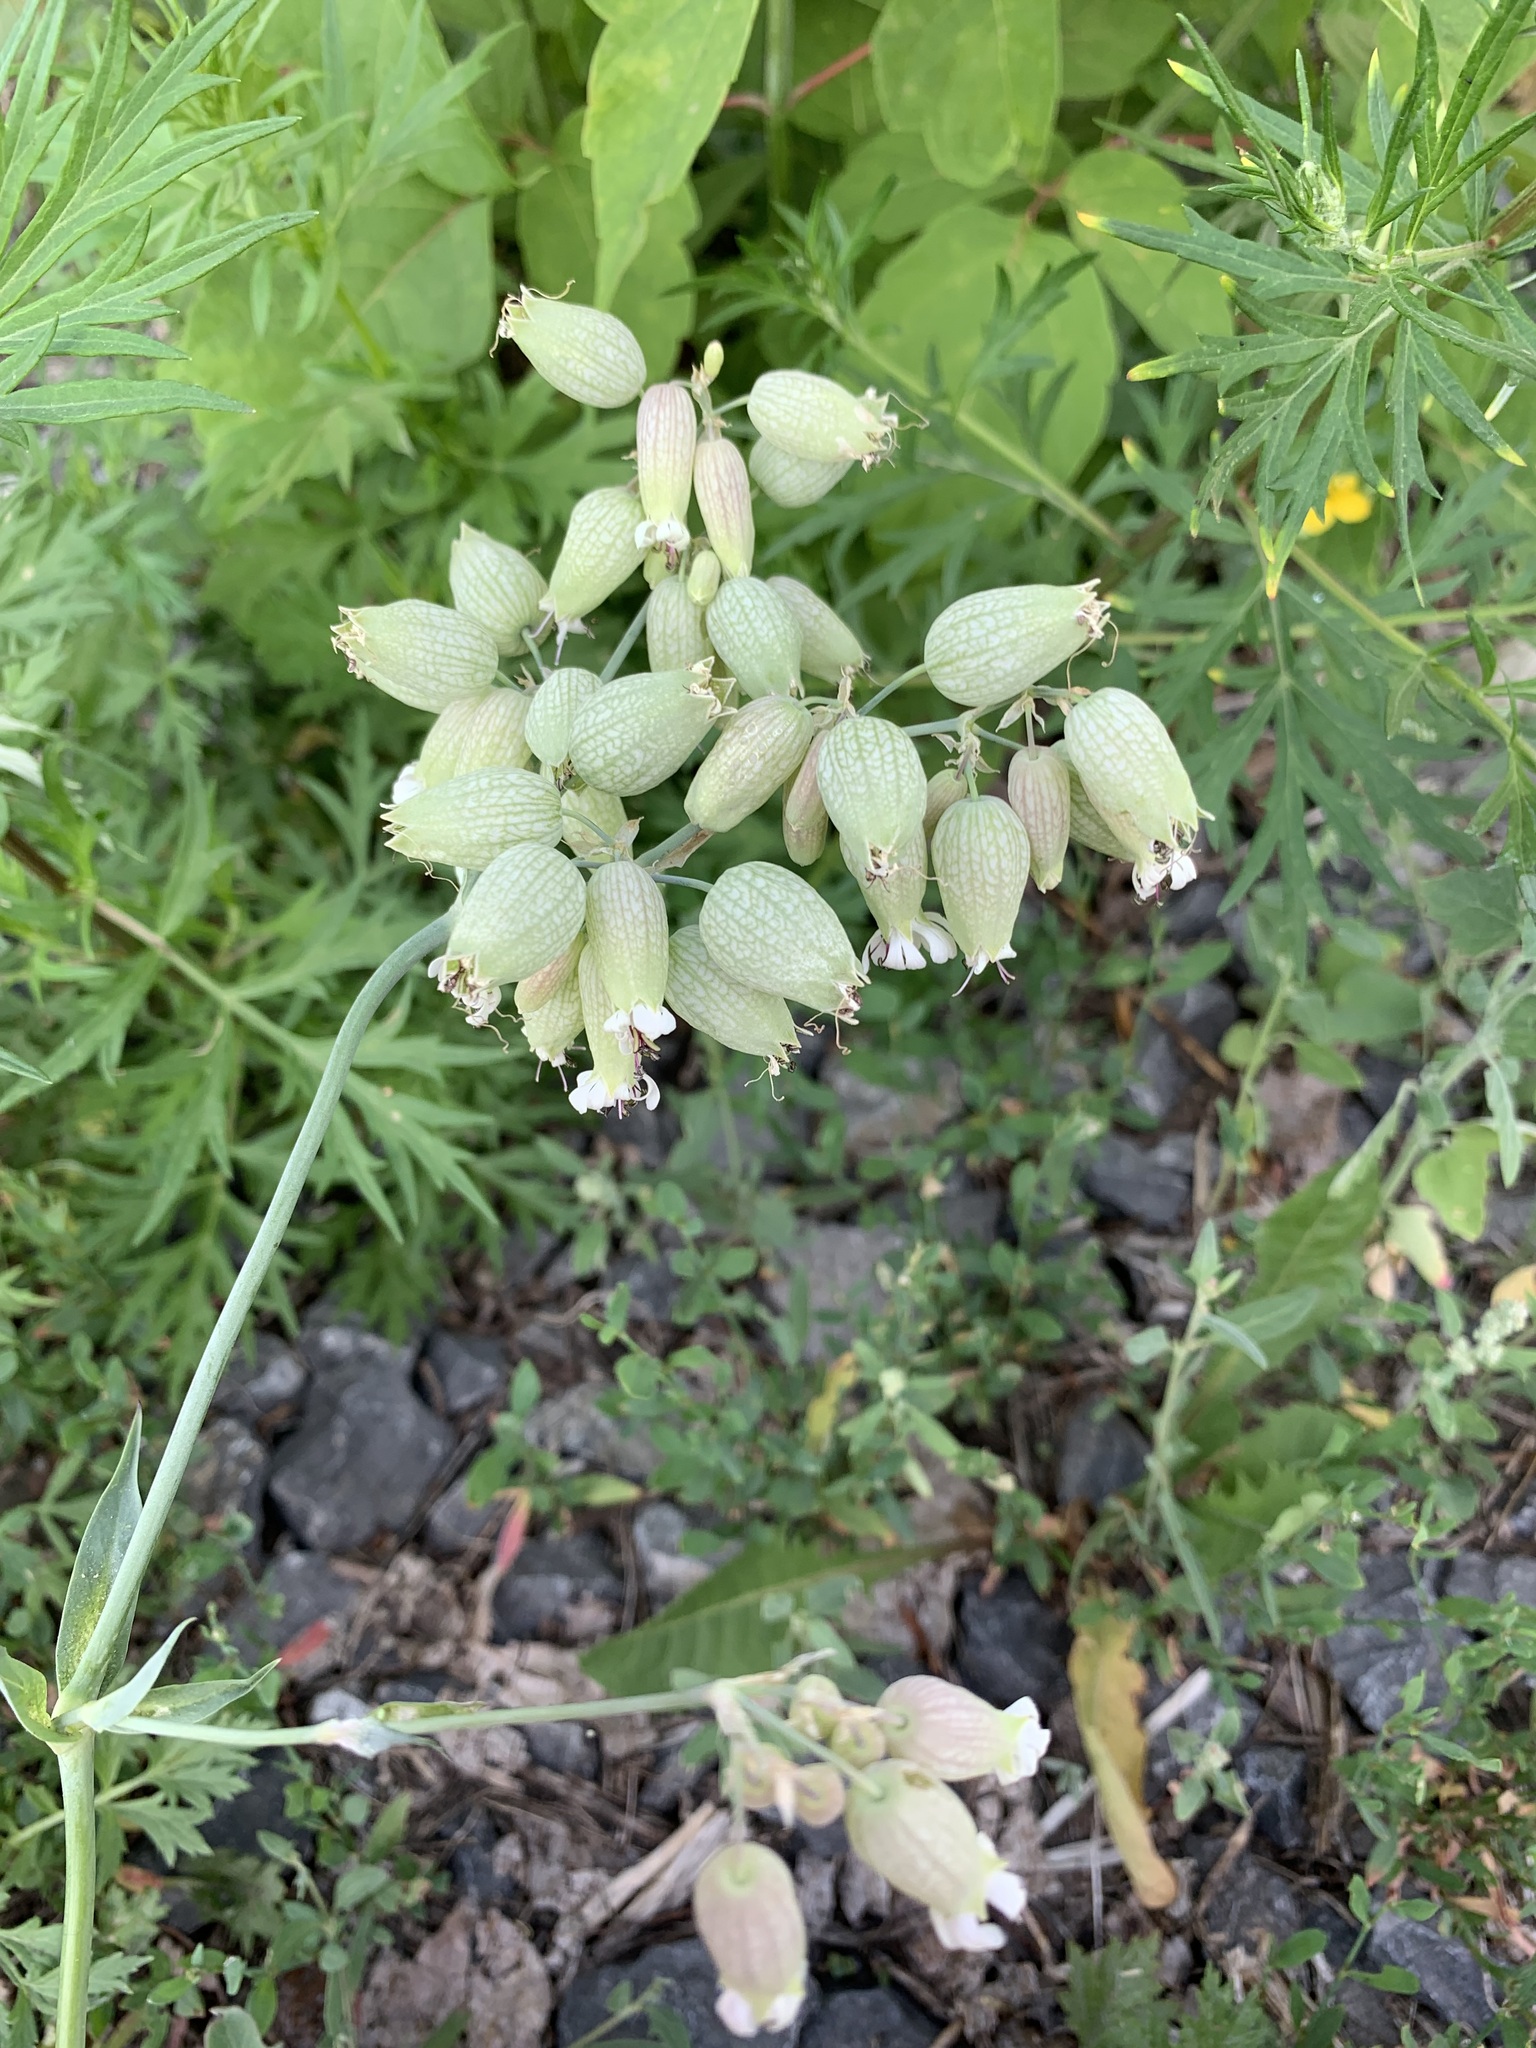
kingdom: Plantae
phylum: Tracheophyta
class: Magnoliopsida
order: Caryophyllales
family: Caryophyllaceae
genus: Silene
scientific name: Silene vulgaris
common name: Bladder campion
